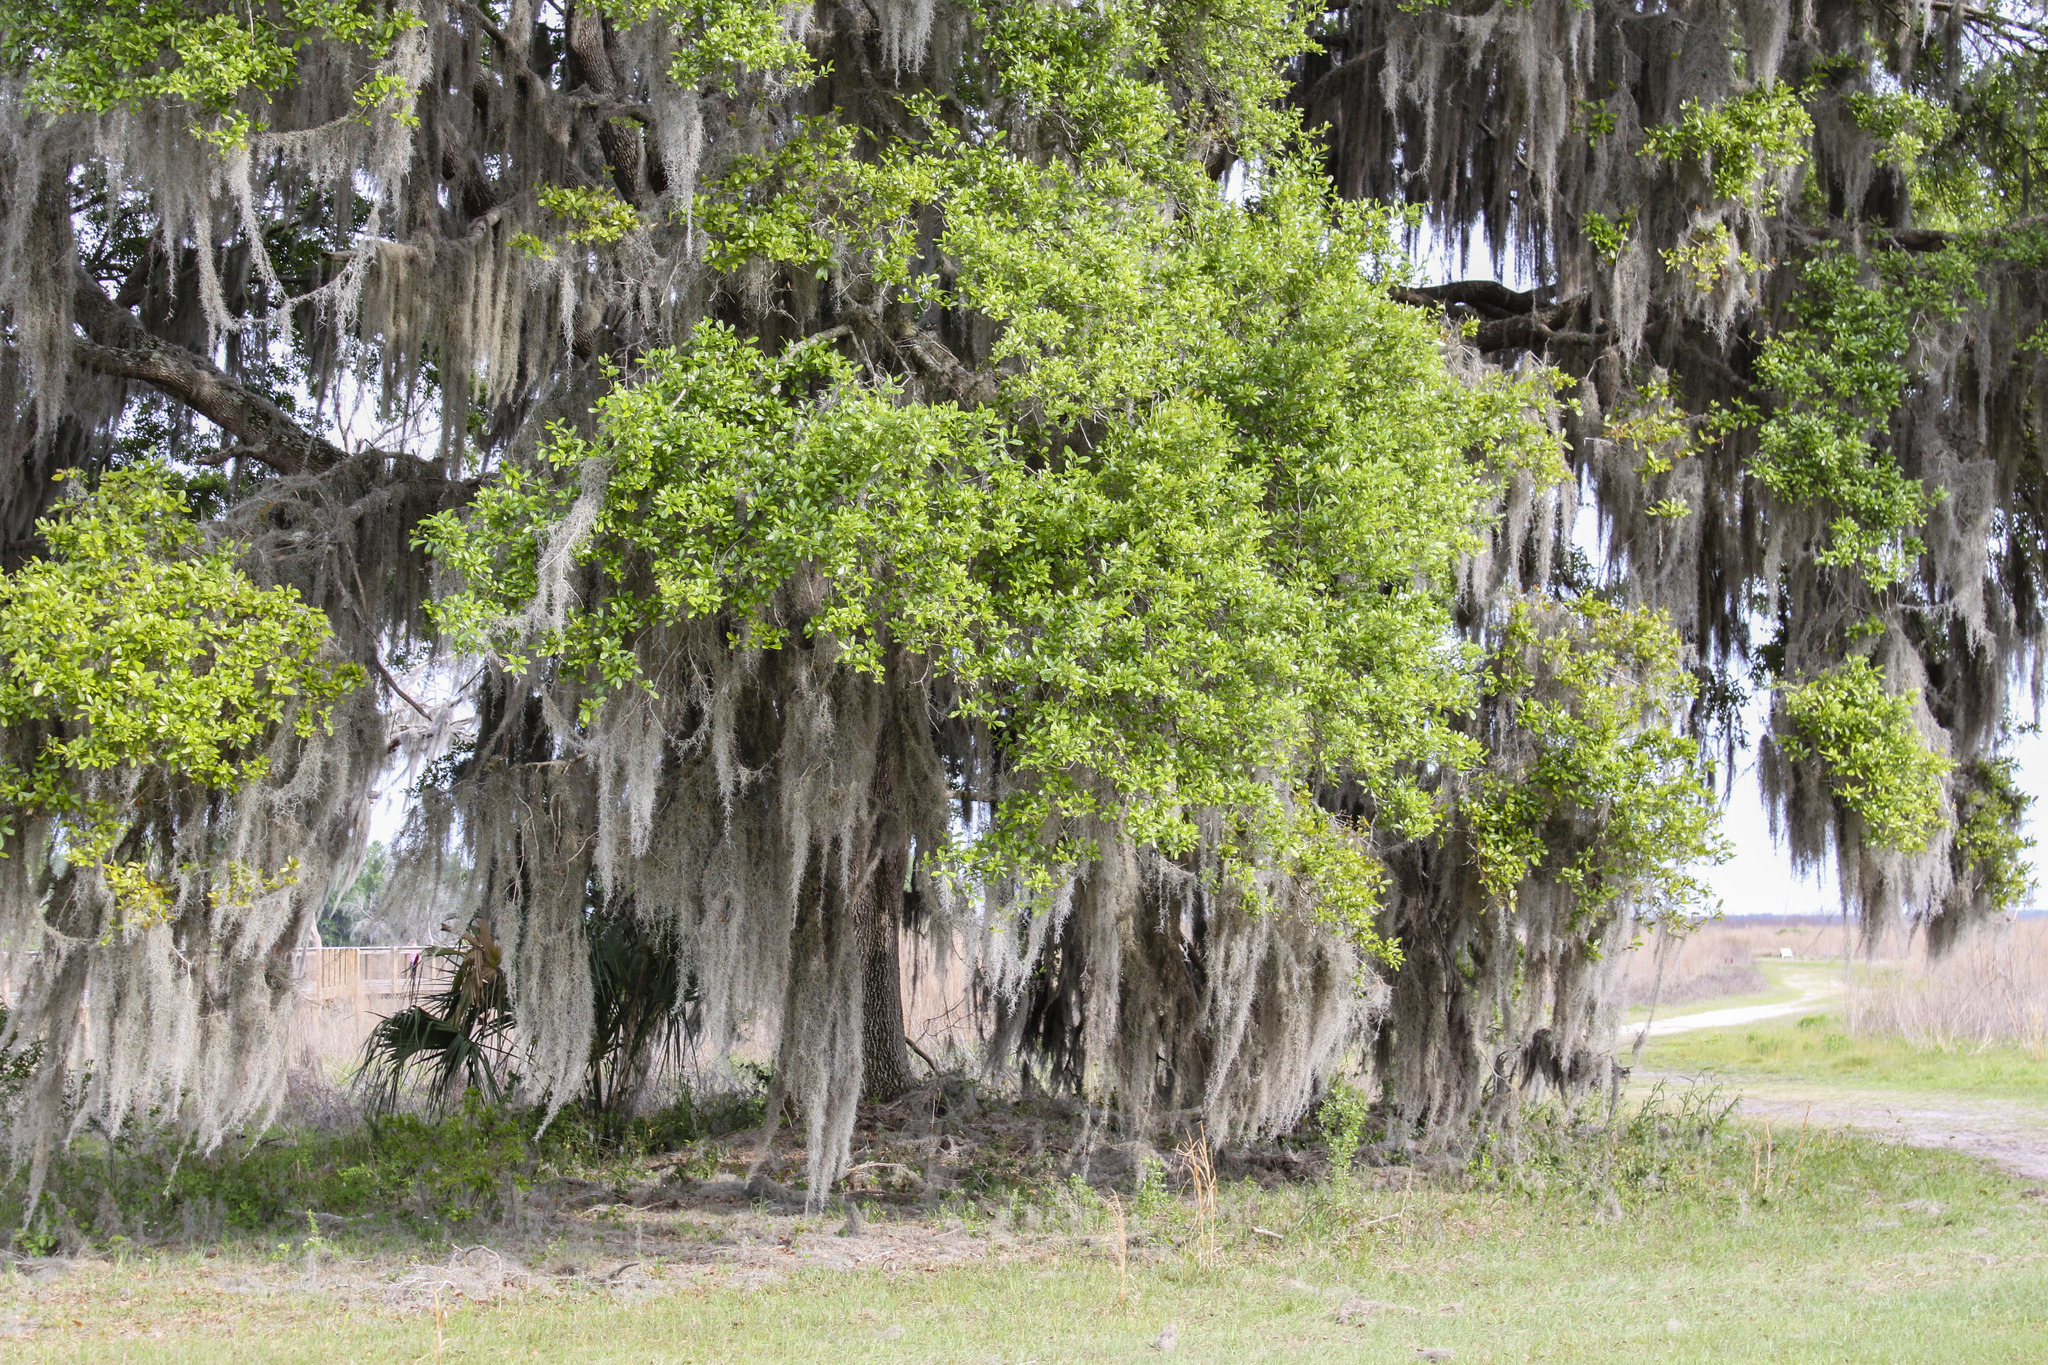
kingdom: Plantae
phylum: Tracheophyta
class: Liliopsida
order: Poales
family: Bromeliaceae
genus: Tillandsia
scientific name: Tillandsia usneoides
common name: Spanish moss
